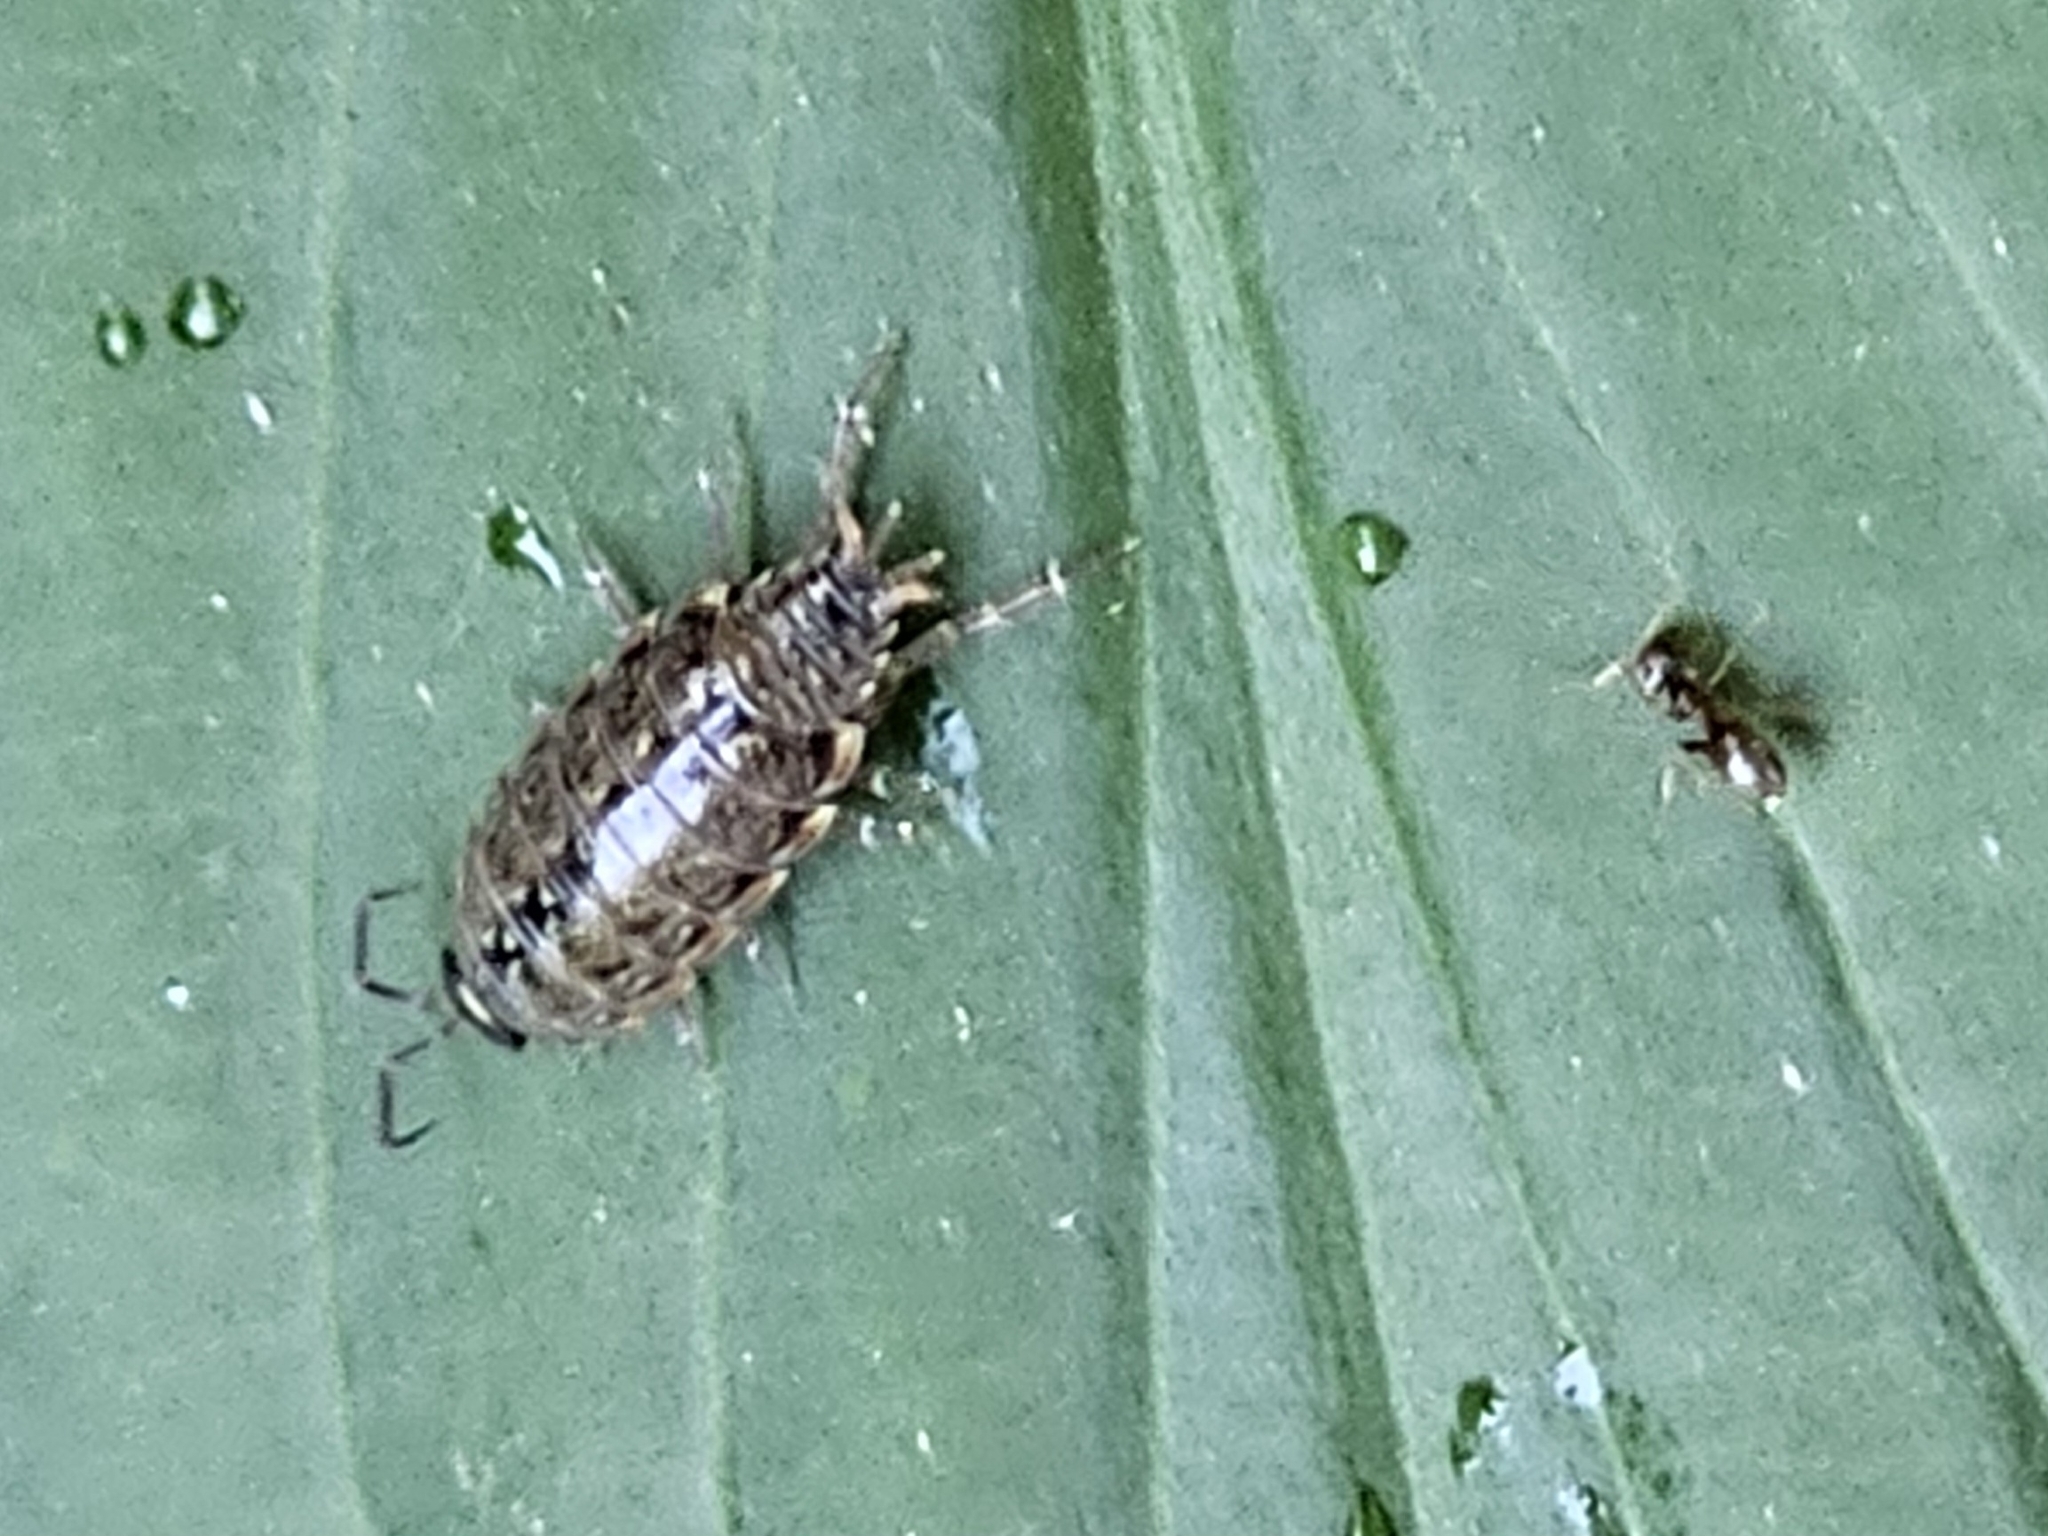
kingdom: Animalia
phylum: Arthropoda
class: Malacostraca
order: Isopoda
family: Philosciidae
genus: Philoscia
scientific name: Philoscia muscorum
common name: Common striped woodlouse
